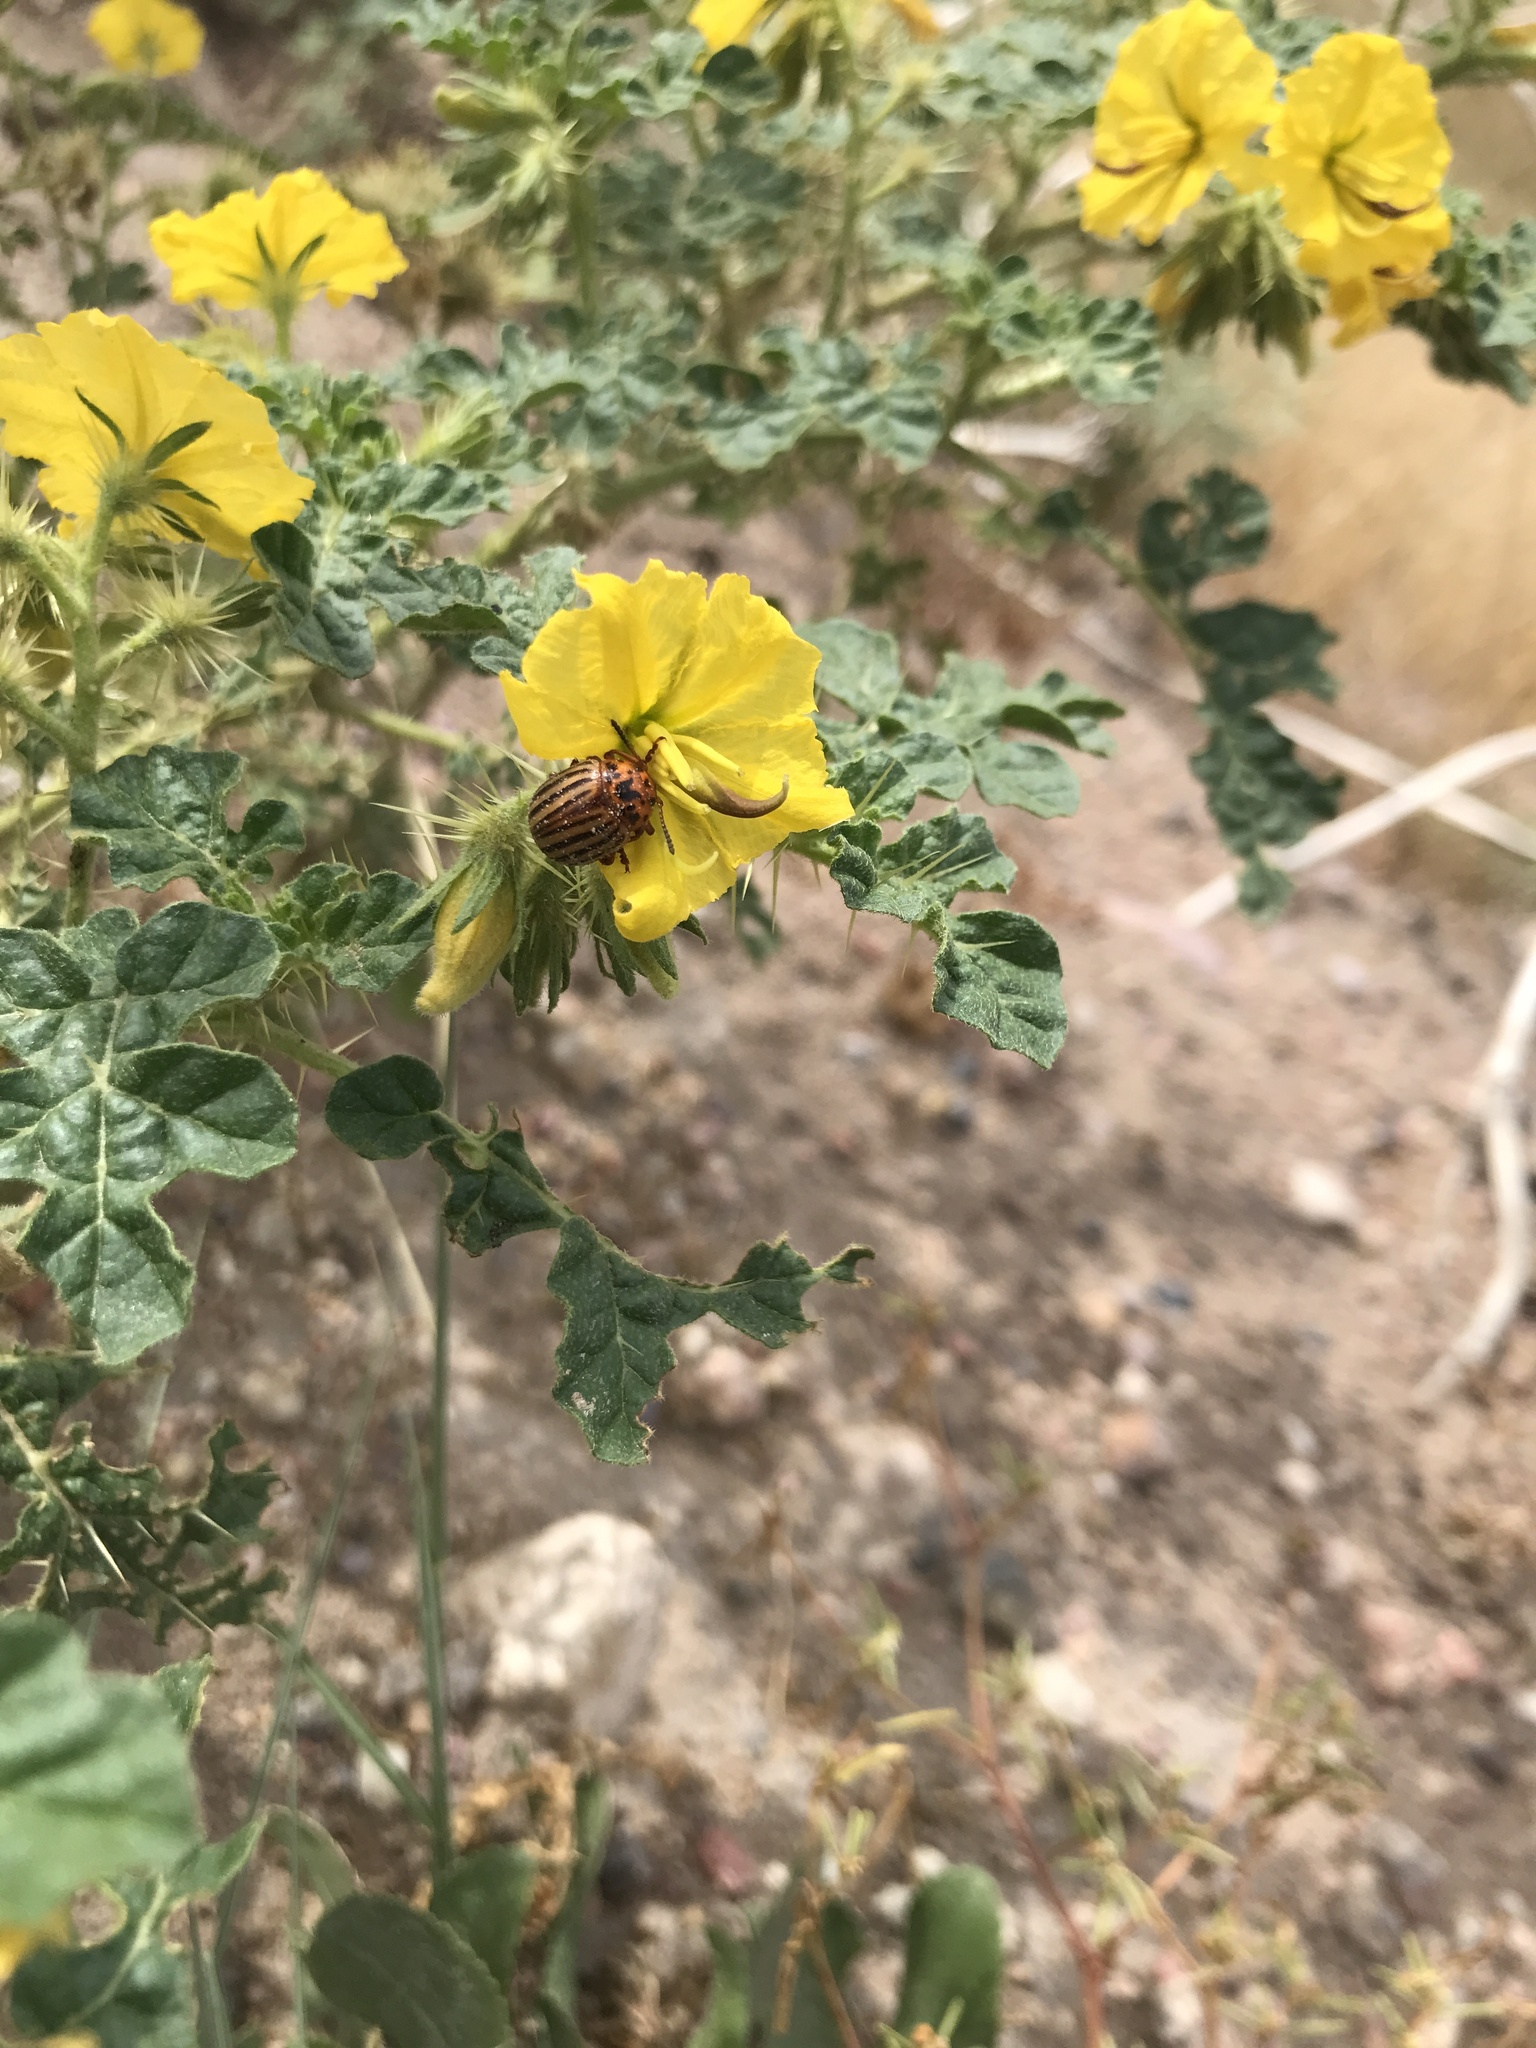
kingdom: Animalia
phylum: Arthropoda
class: Insecta
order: Coleoptera
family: Chrysomelidae
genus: Leptinotarsa
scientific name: Leptinotarsa decemlineata
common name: Colorado potato beetle
